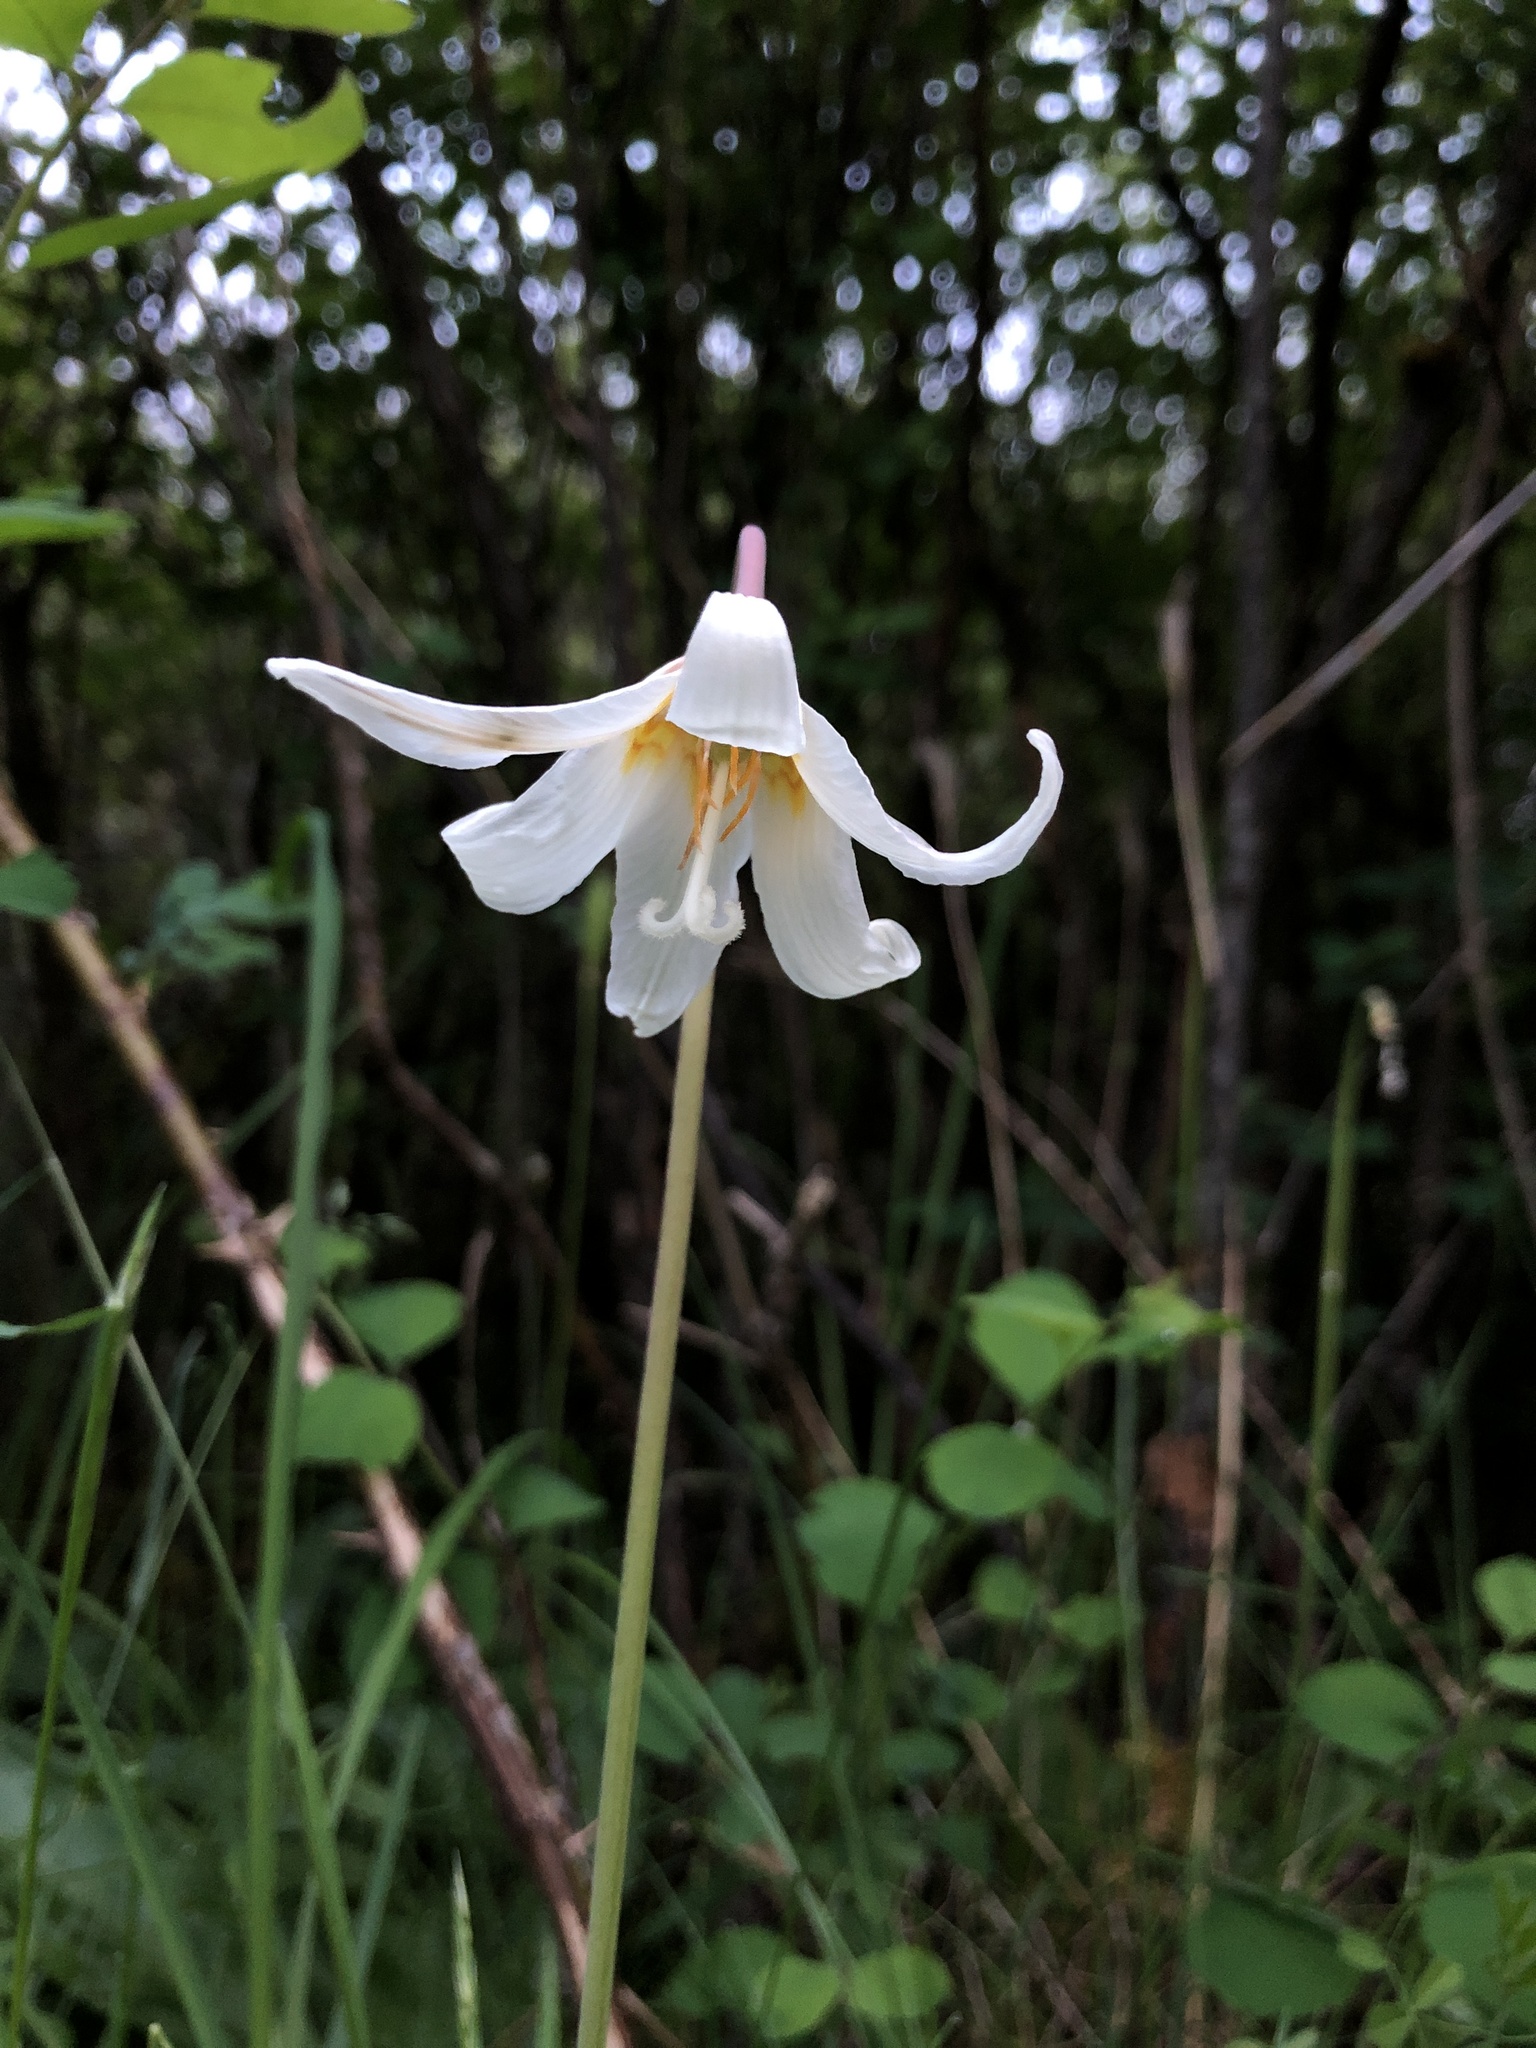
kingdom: Plantae
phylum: Tracheophyta
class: Liliopsida
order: Liliales
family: Liliaceae
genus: Erythronium
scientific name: Erythronium oregonum
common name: Giant adder's-tongue
